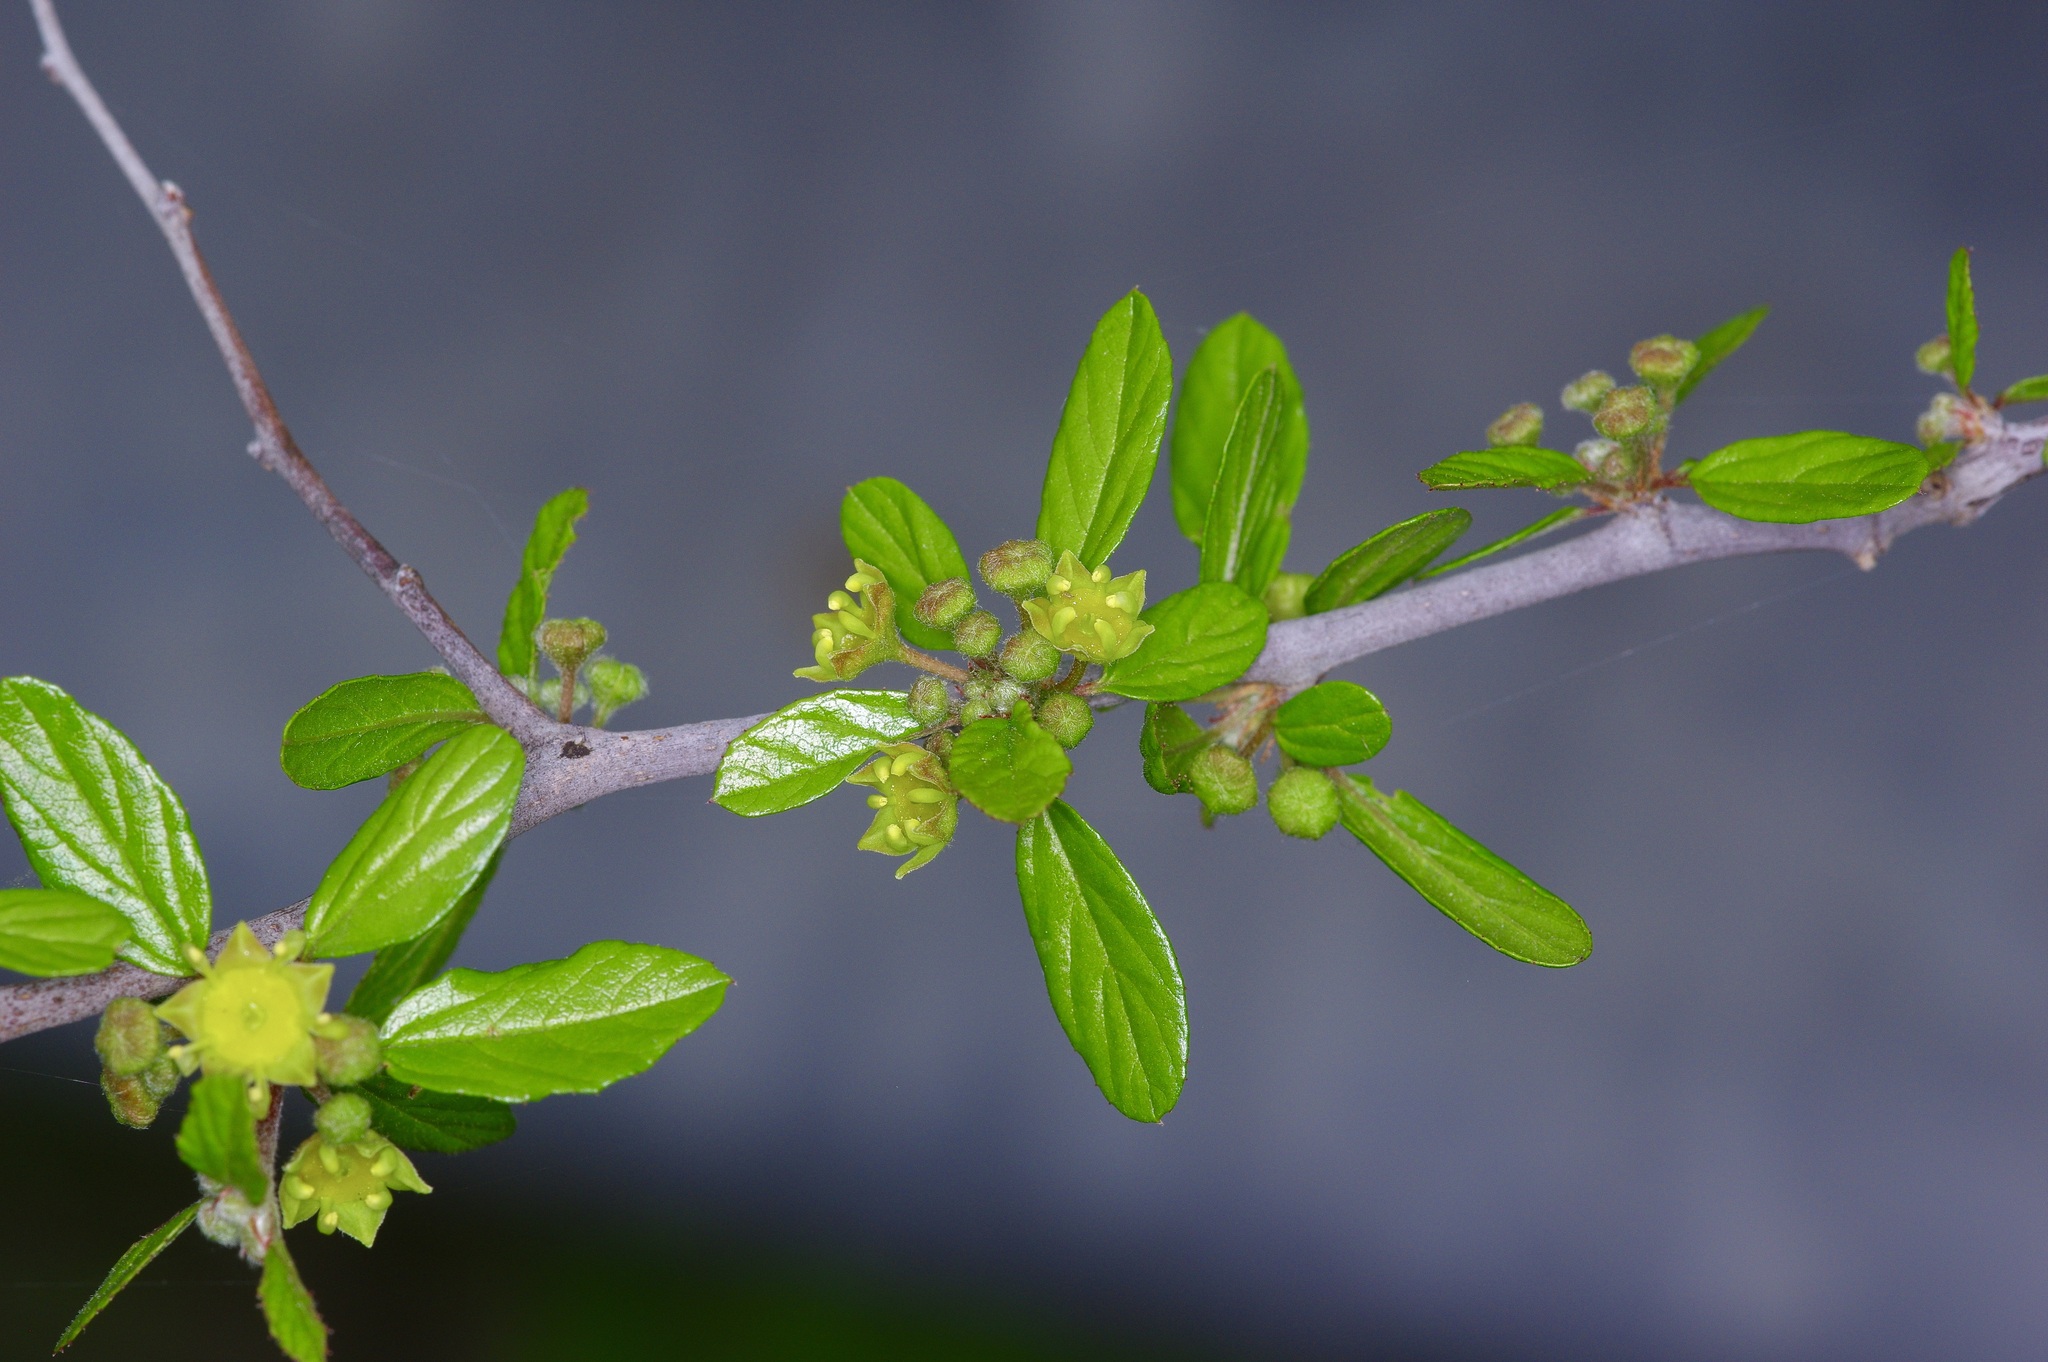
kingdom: Plantae
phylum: Tracheophyta
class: Magnoliopsida
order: Rosales
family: Rhamnaceae
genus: Colubrina
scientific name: Colubrina texensis
